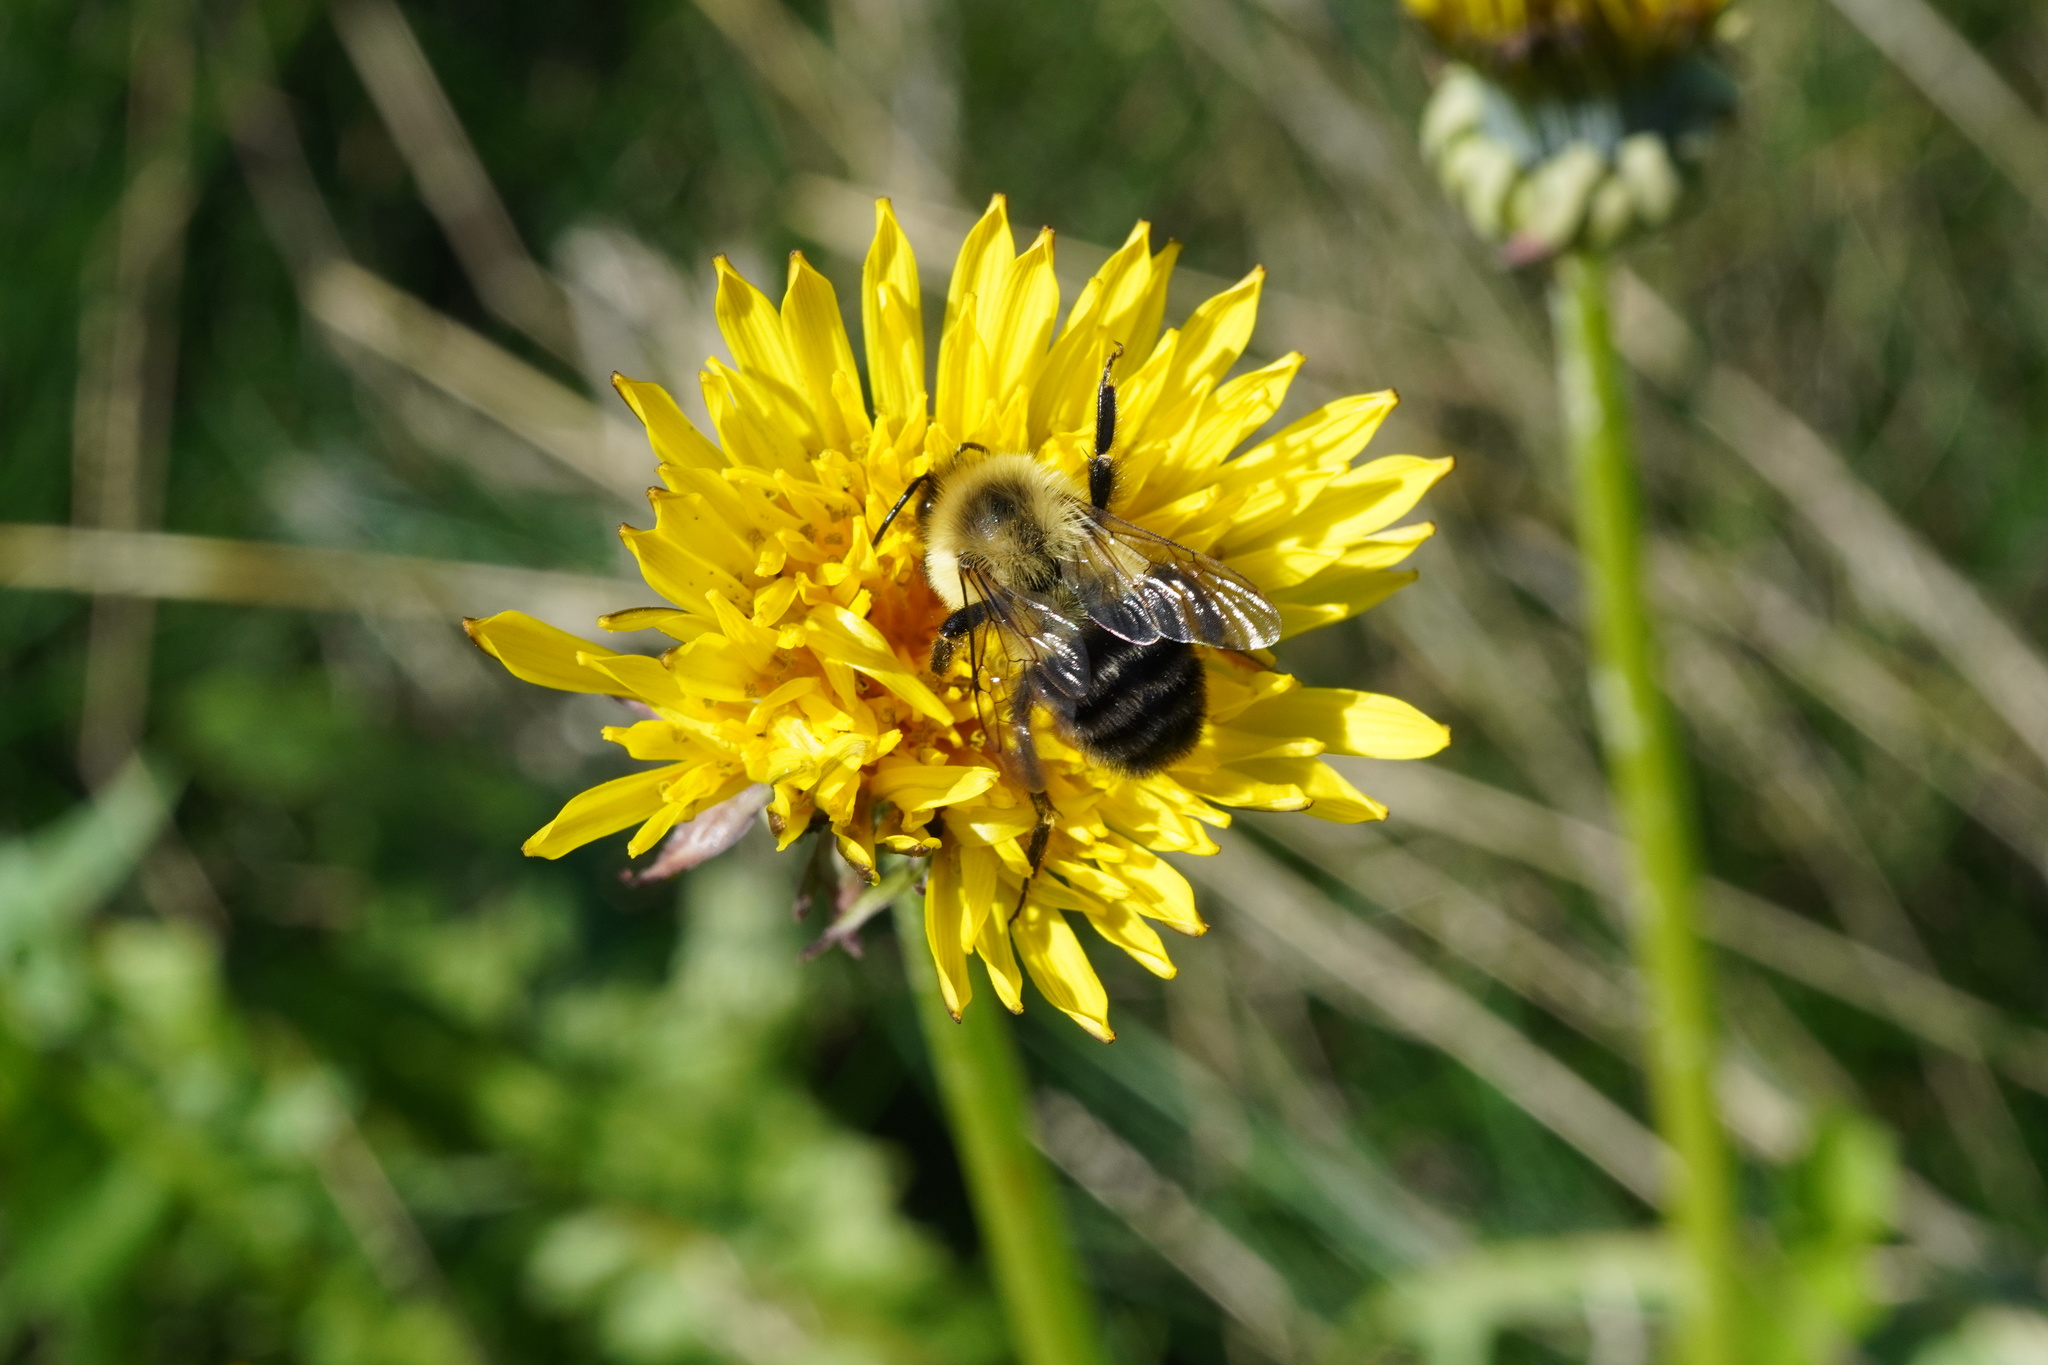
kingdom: Animalia
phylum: Arthropoda
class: Insecta
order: Hymenoptera
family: Apidae
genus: Bombus
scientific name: Bombus impatiens
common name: Common eastern bumble bee
